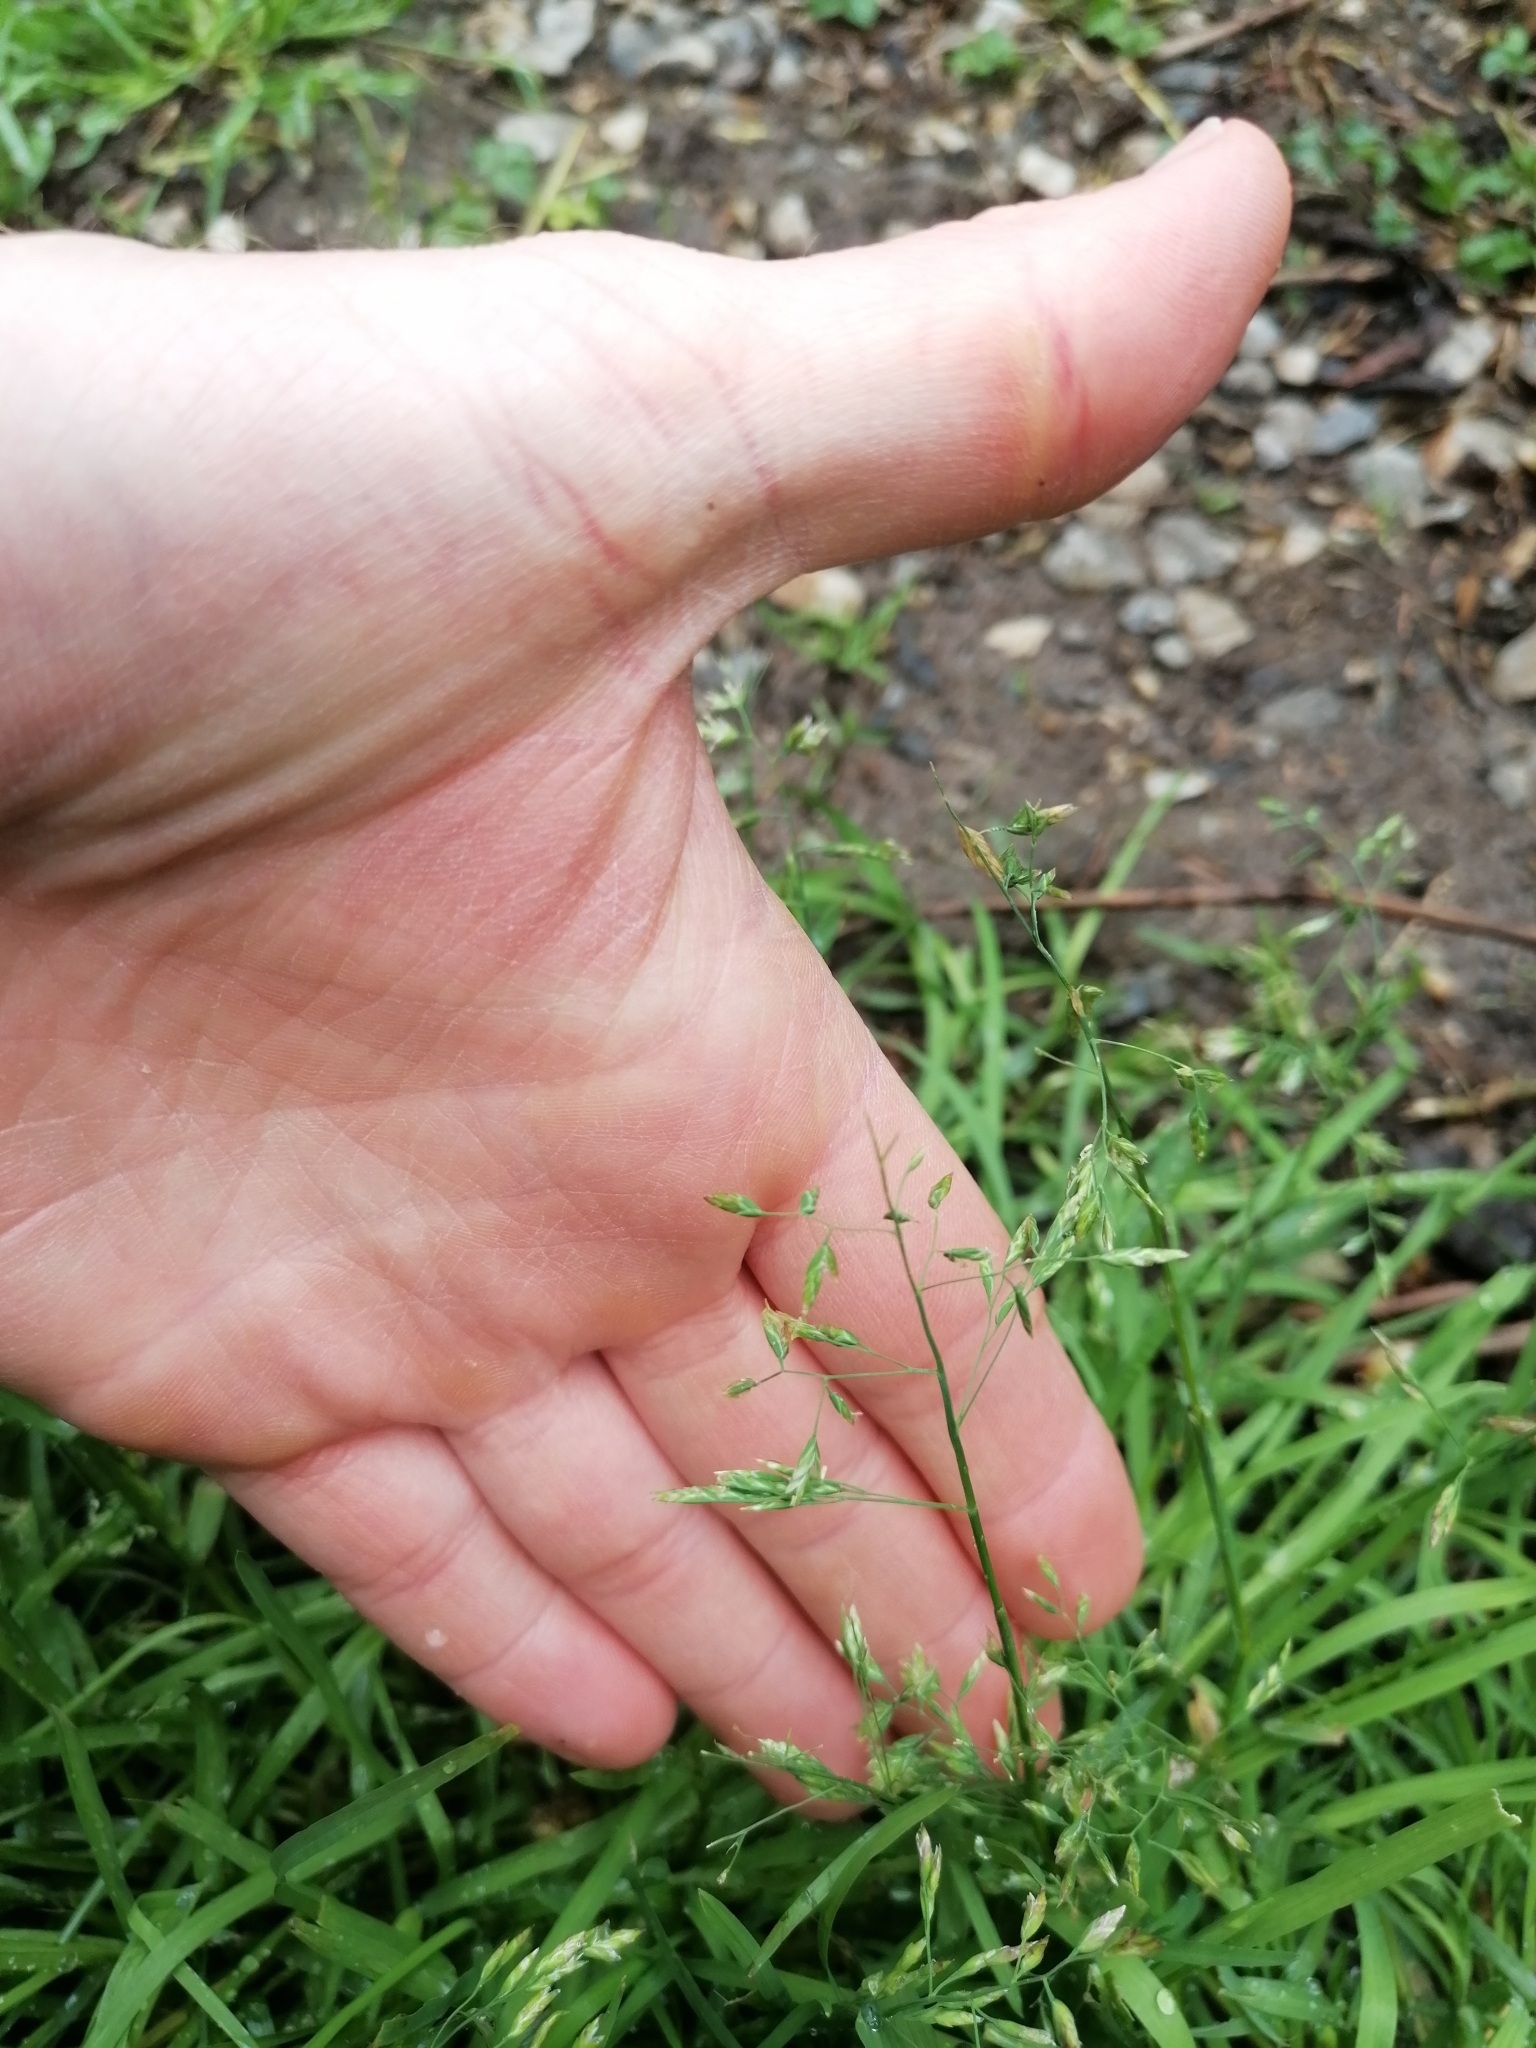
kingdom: Plantae
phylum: Tracheophyta
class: Liliopsida
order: Poales
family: Poaceae
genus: Poa
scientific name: Poa annua
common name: Annual bluegrass
